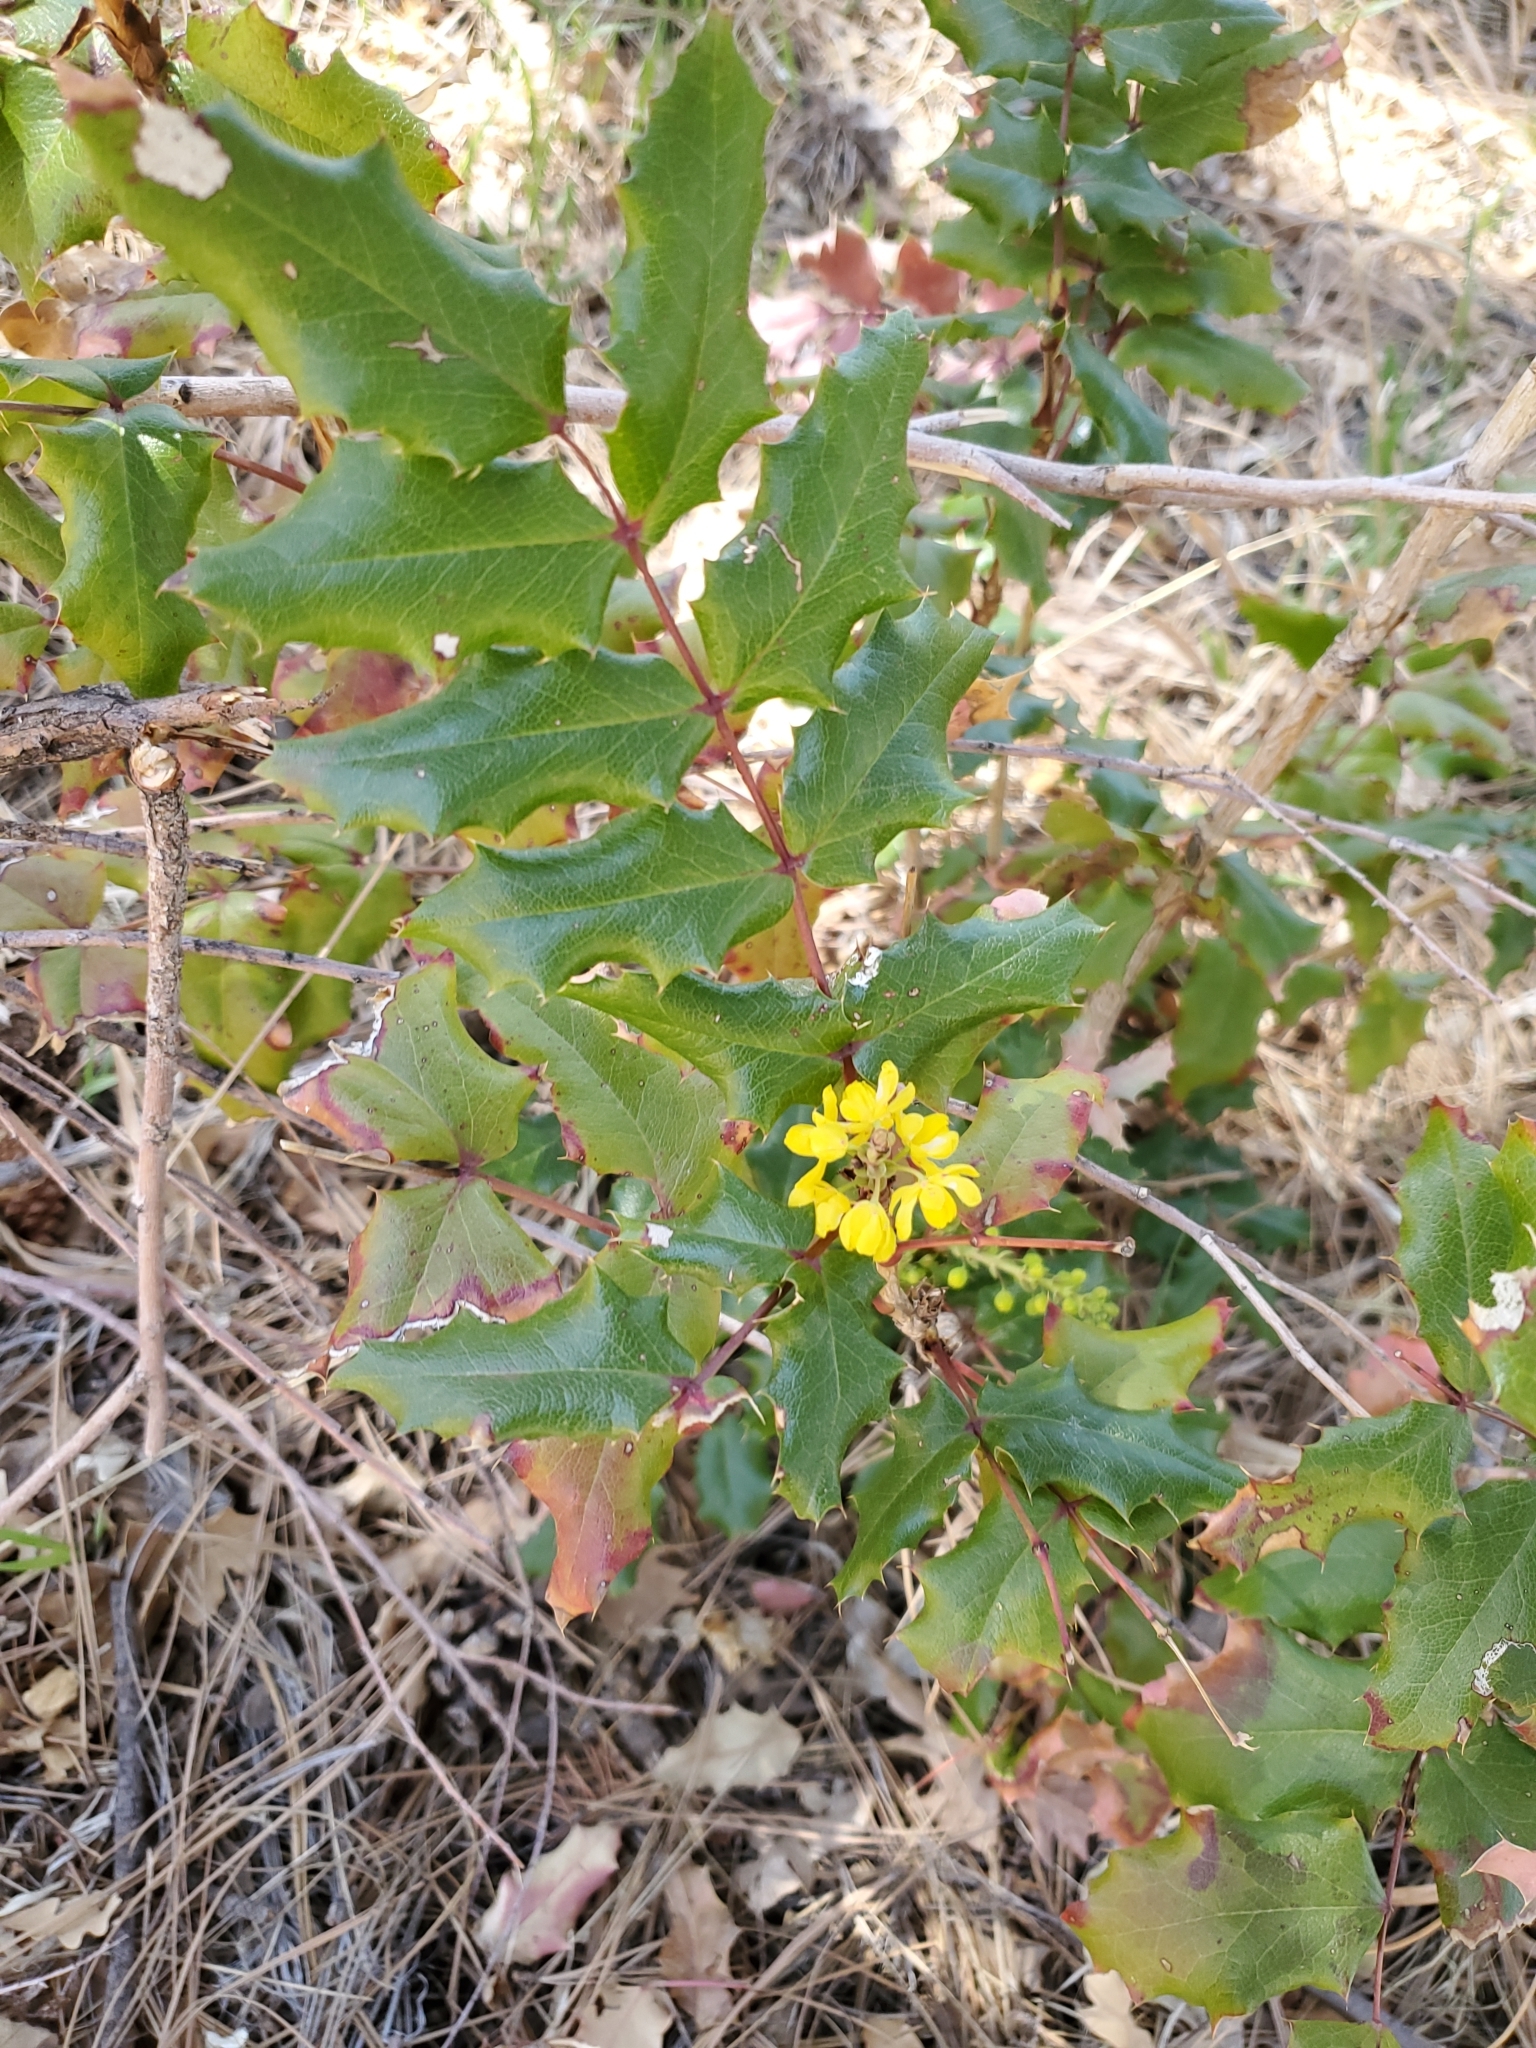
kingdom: Plantae
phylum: Tracheophyta
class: Magnoliopsida
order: Ranunculales
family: Berberidaceae
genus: Mahonia
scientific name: Mahonia aquifolium
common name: Oregon-grape
